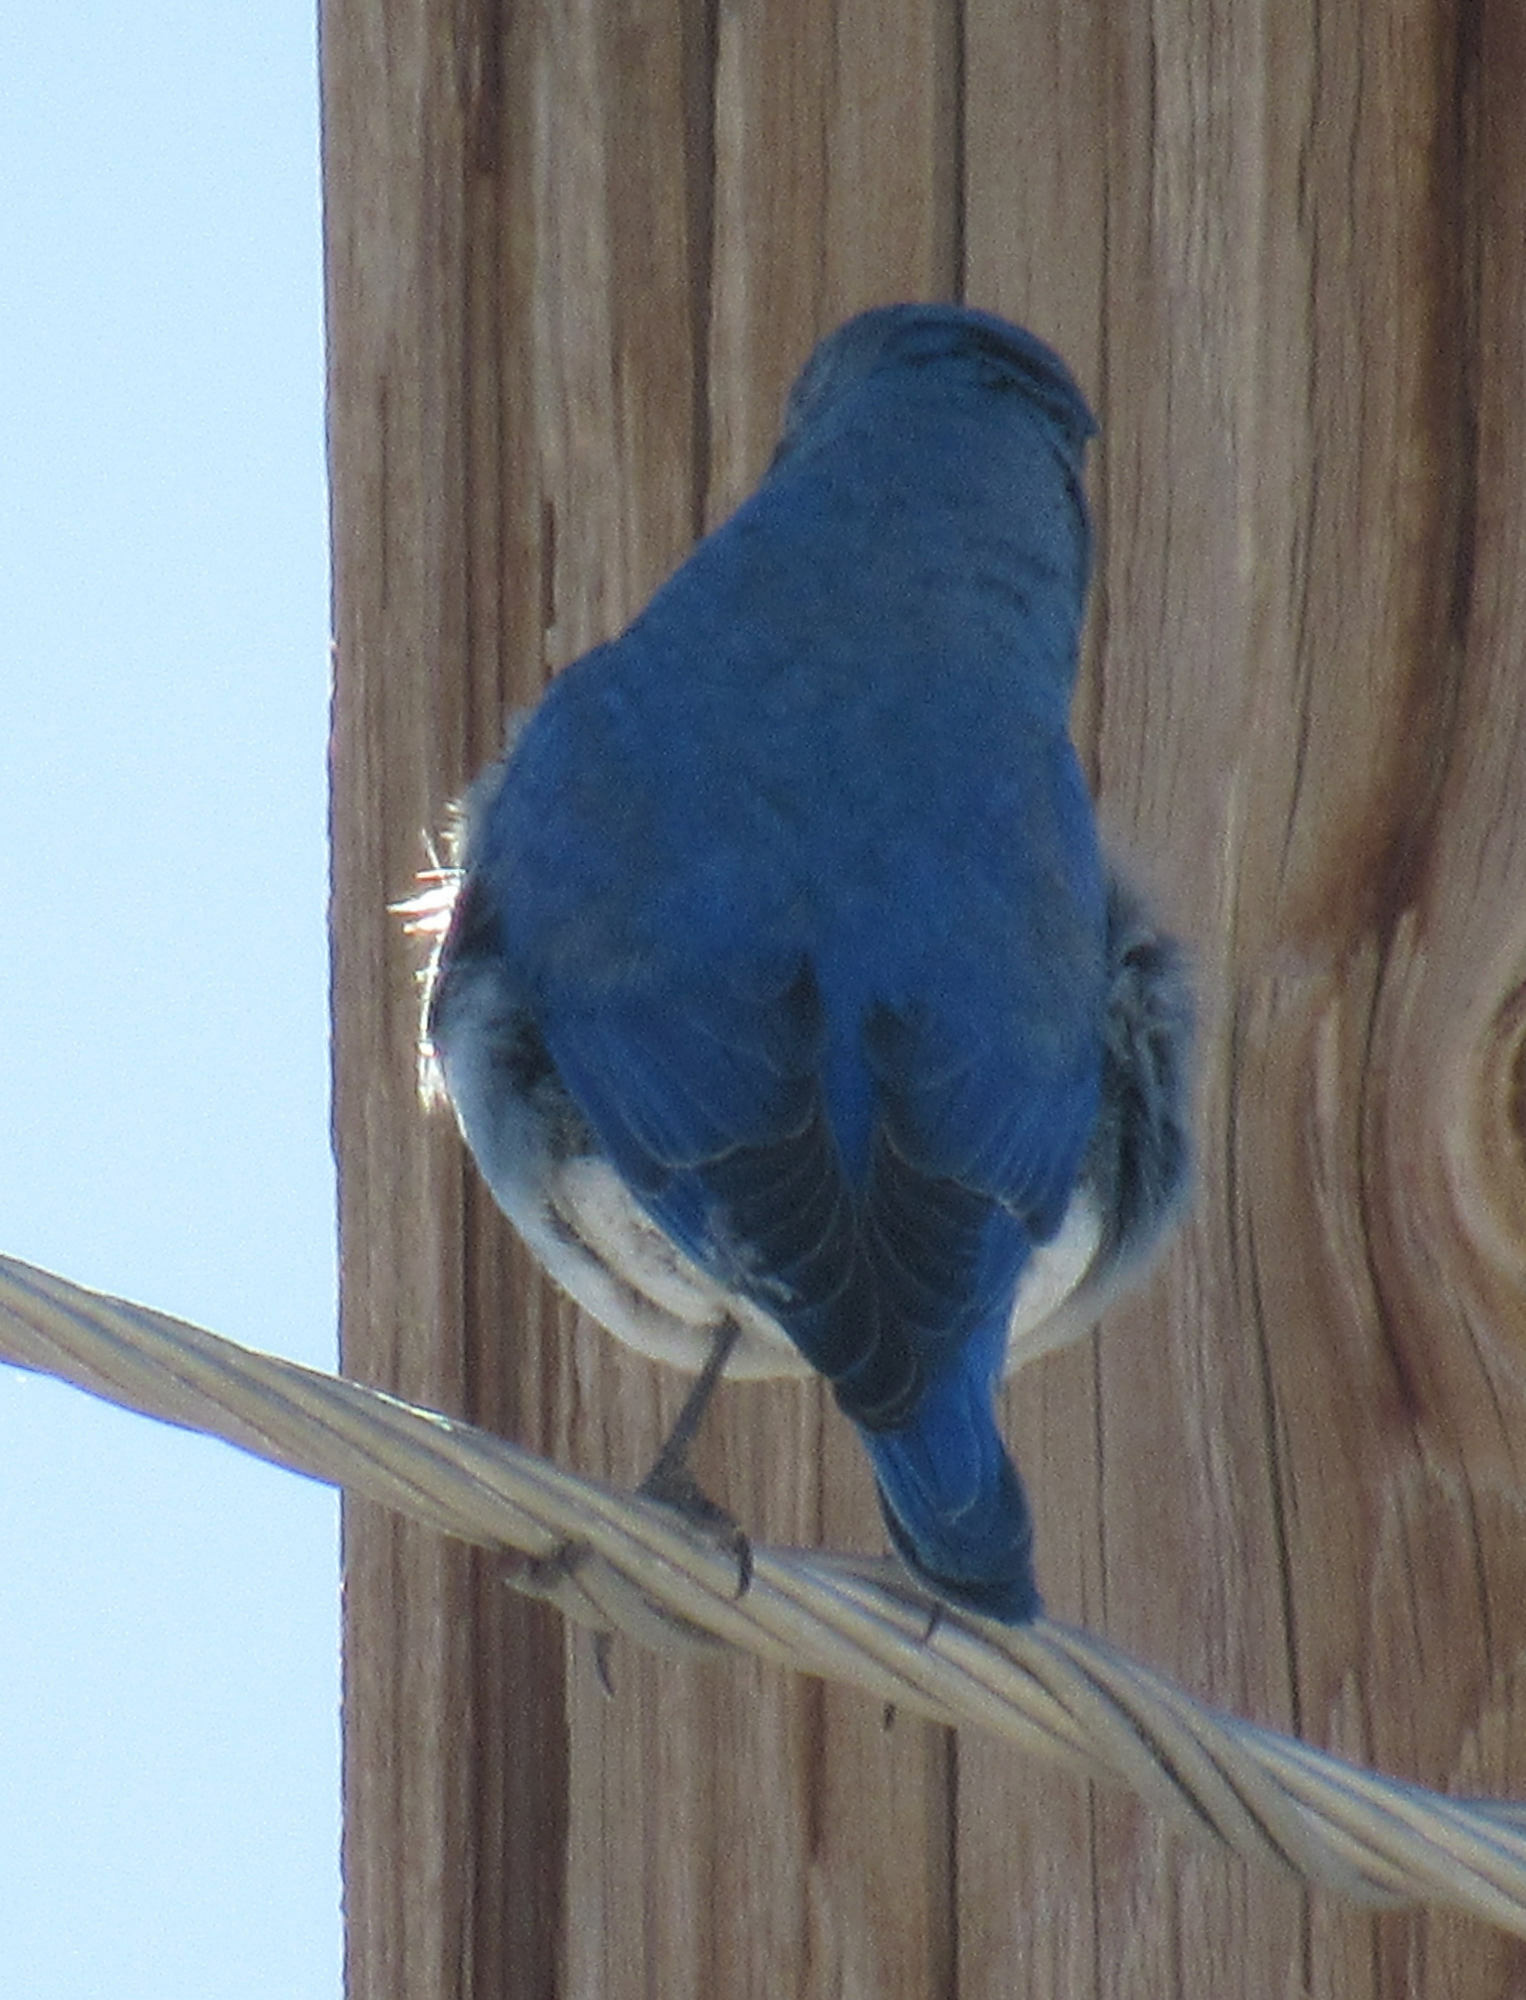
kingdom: Animalia
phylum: Chordata
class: Aves
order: Passeriformes
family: Turdidae
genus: Sialia
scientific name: Sialia currucoides
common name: Mountain bluebird
